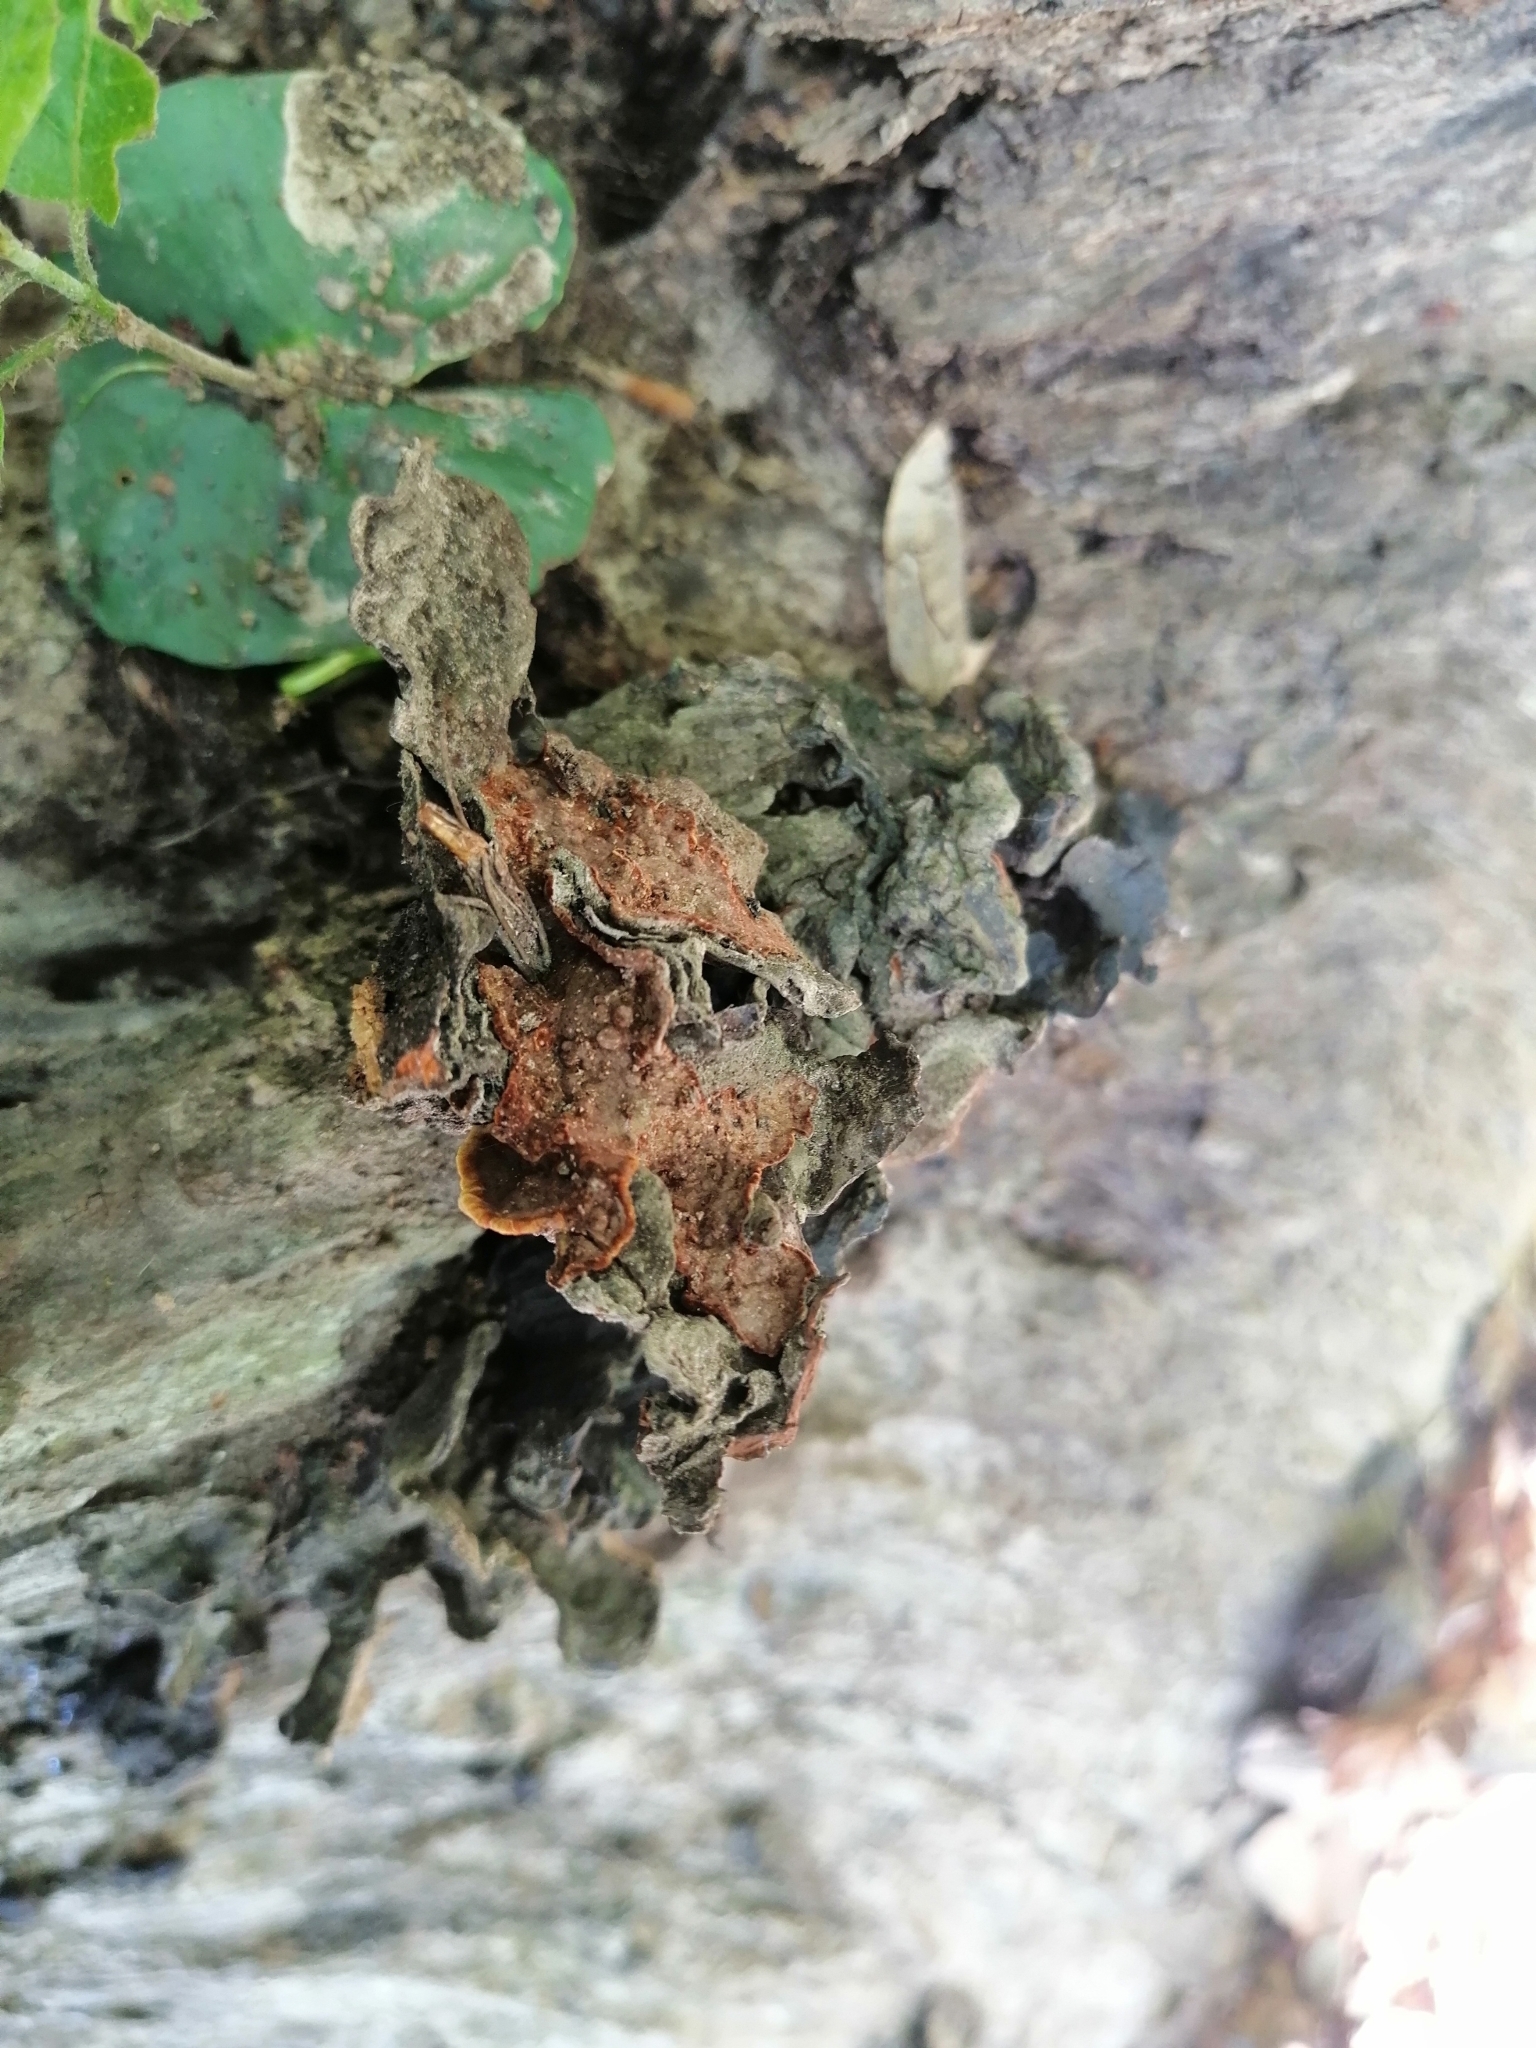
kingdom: Fungi
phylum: Basidiomycota
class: Agaricomycetes
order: Hymenochaetales
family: Hymenochaetaceae
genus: Hymenochaete
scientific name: Hymenochaete rubiginosa
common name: Oak curtain crust
